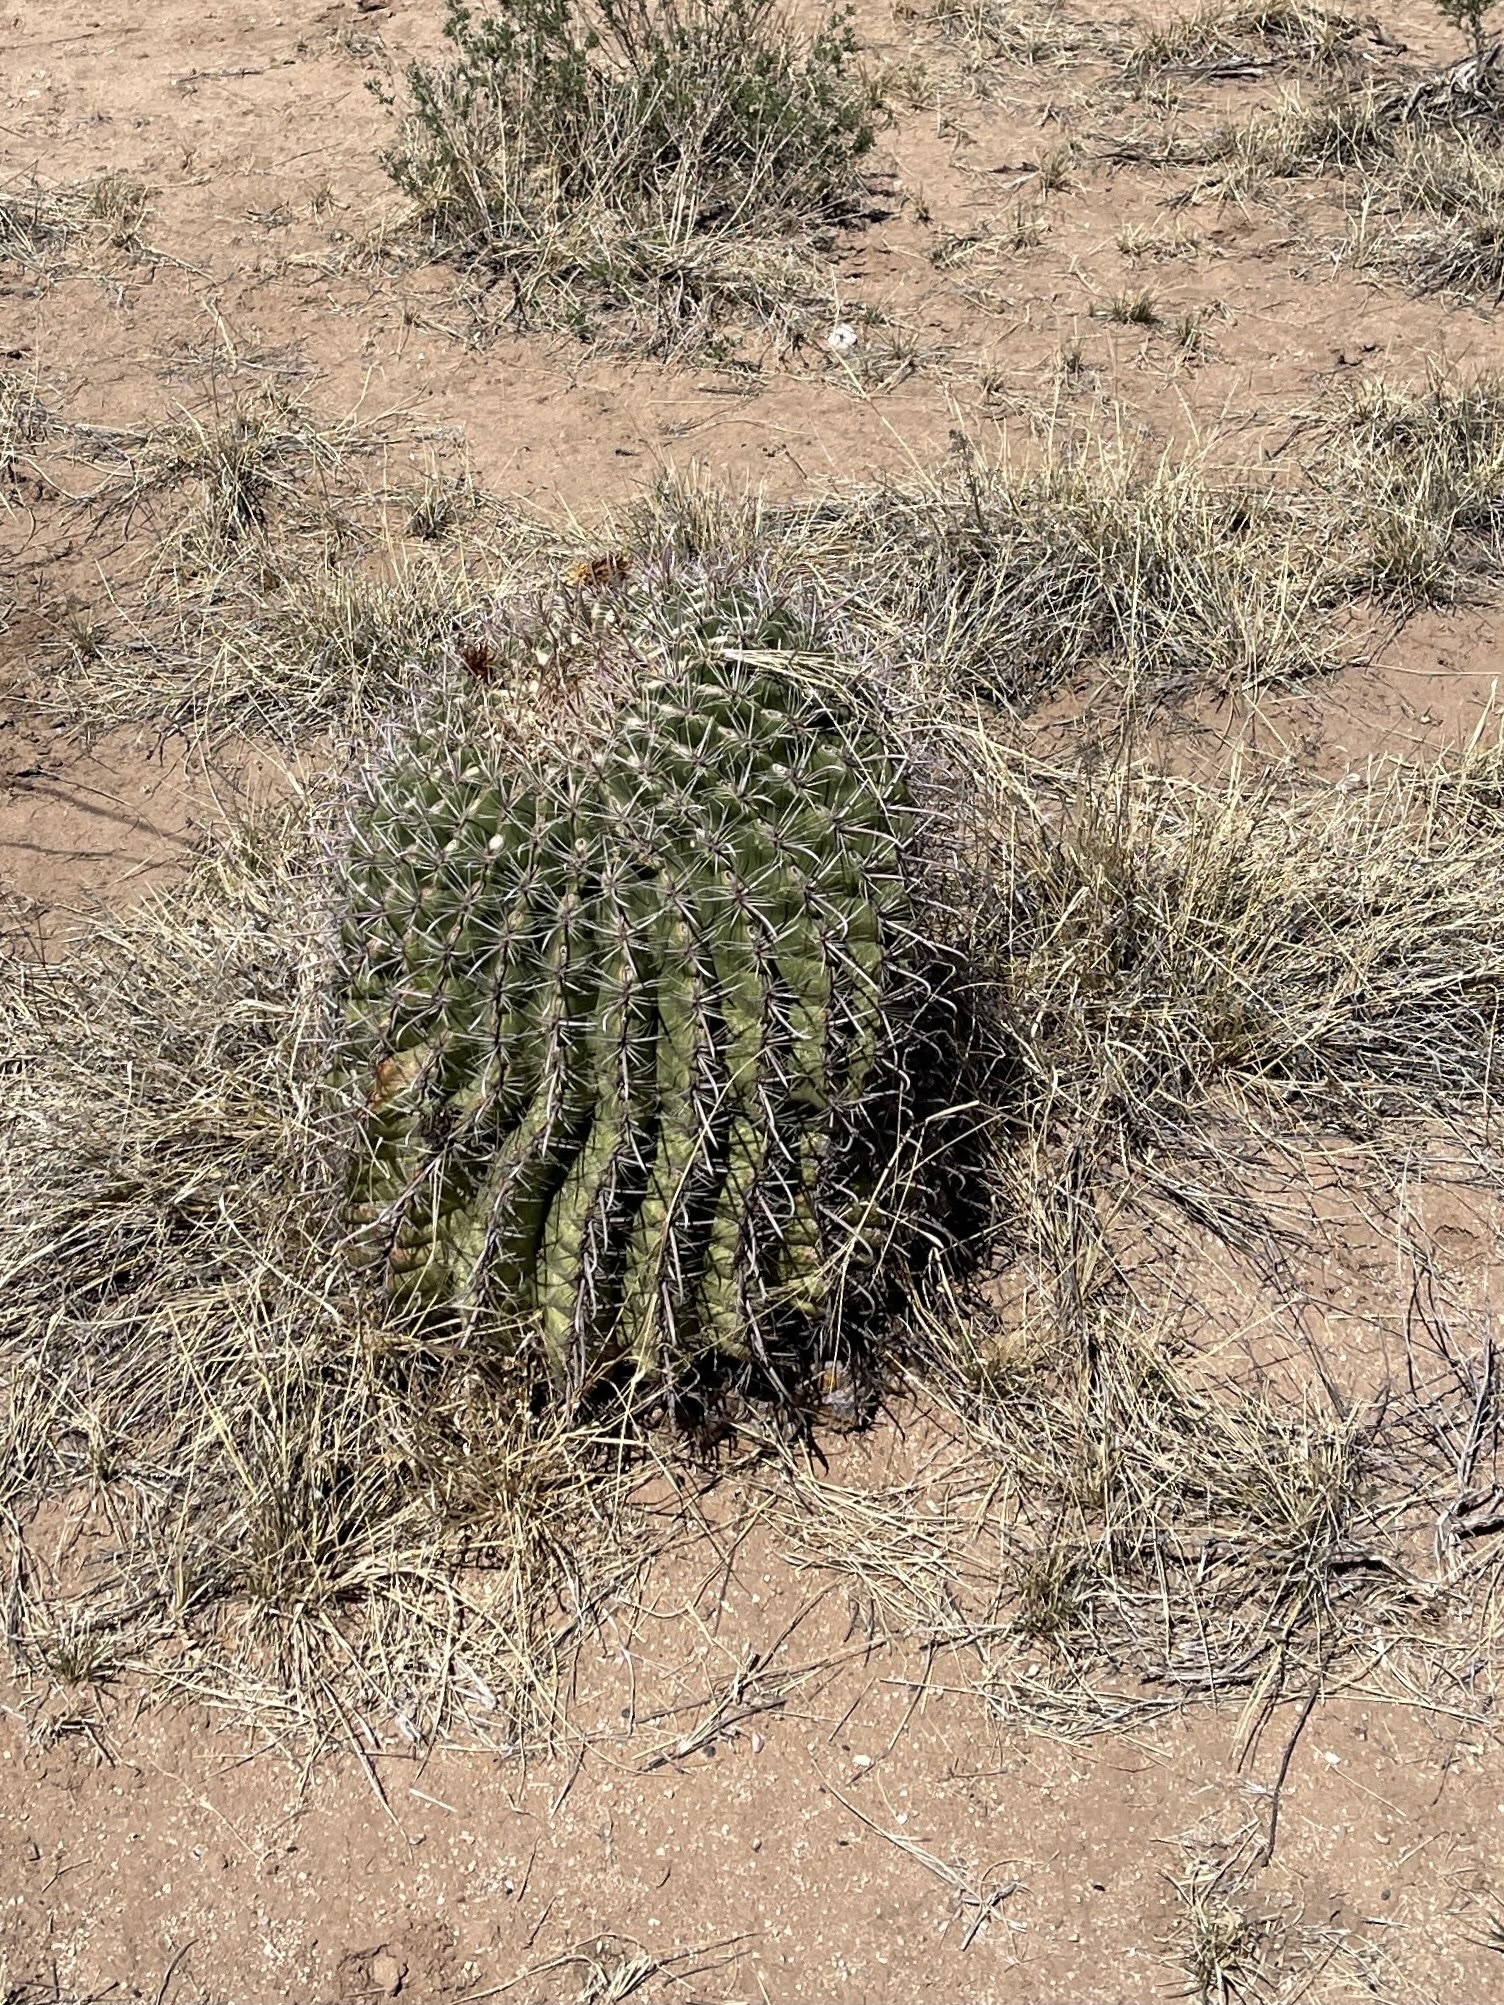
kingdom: Plantae
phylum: Tracheophyta
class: Magnoliopsida
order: Caryophyllales
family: Cactaceae
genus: Ferocactus
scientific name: Ferocactus wislizeni
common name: Candy barrel cactus
